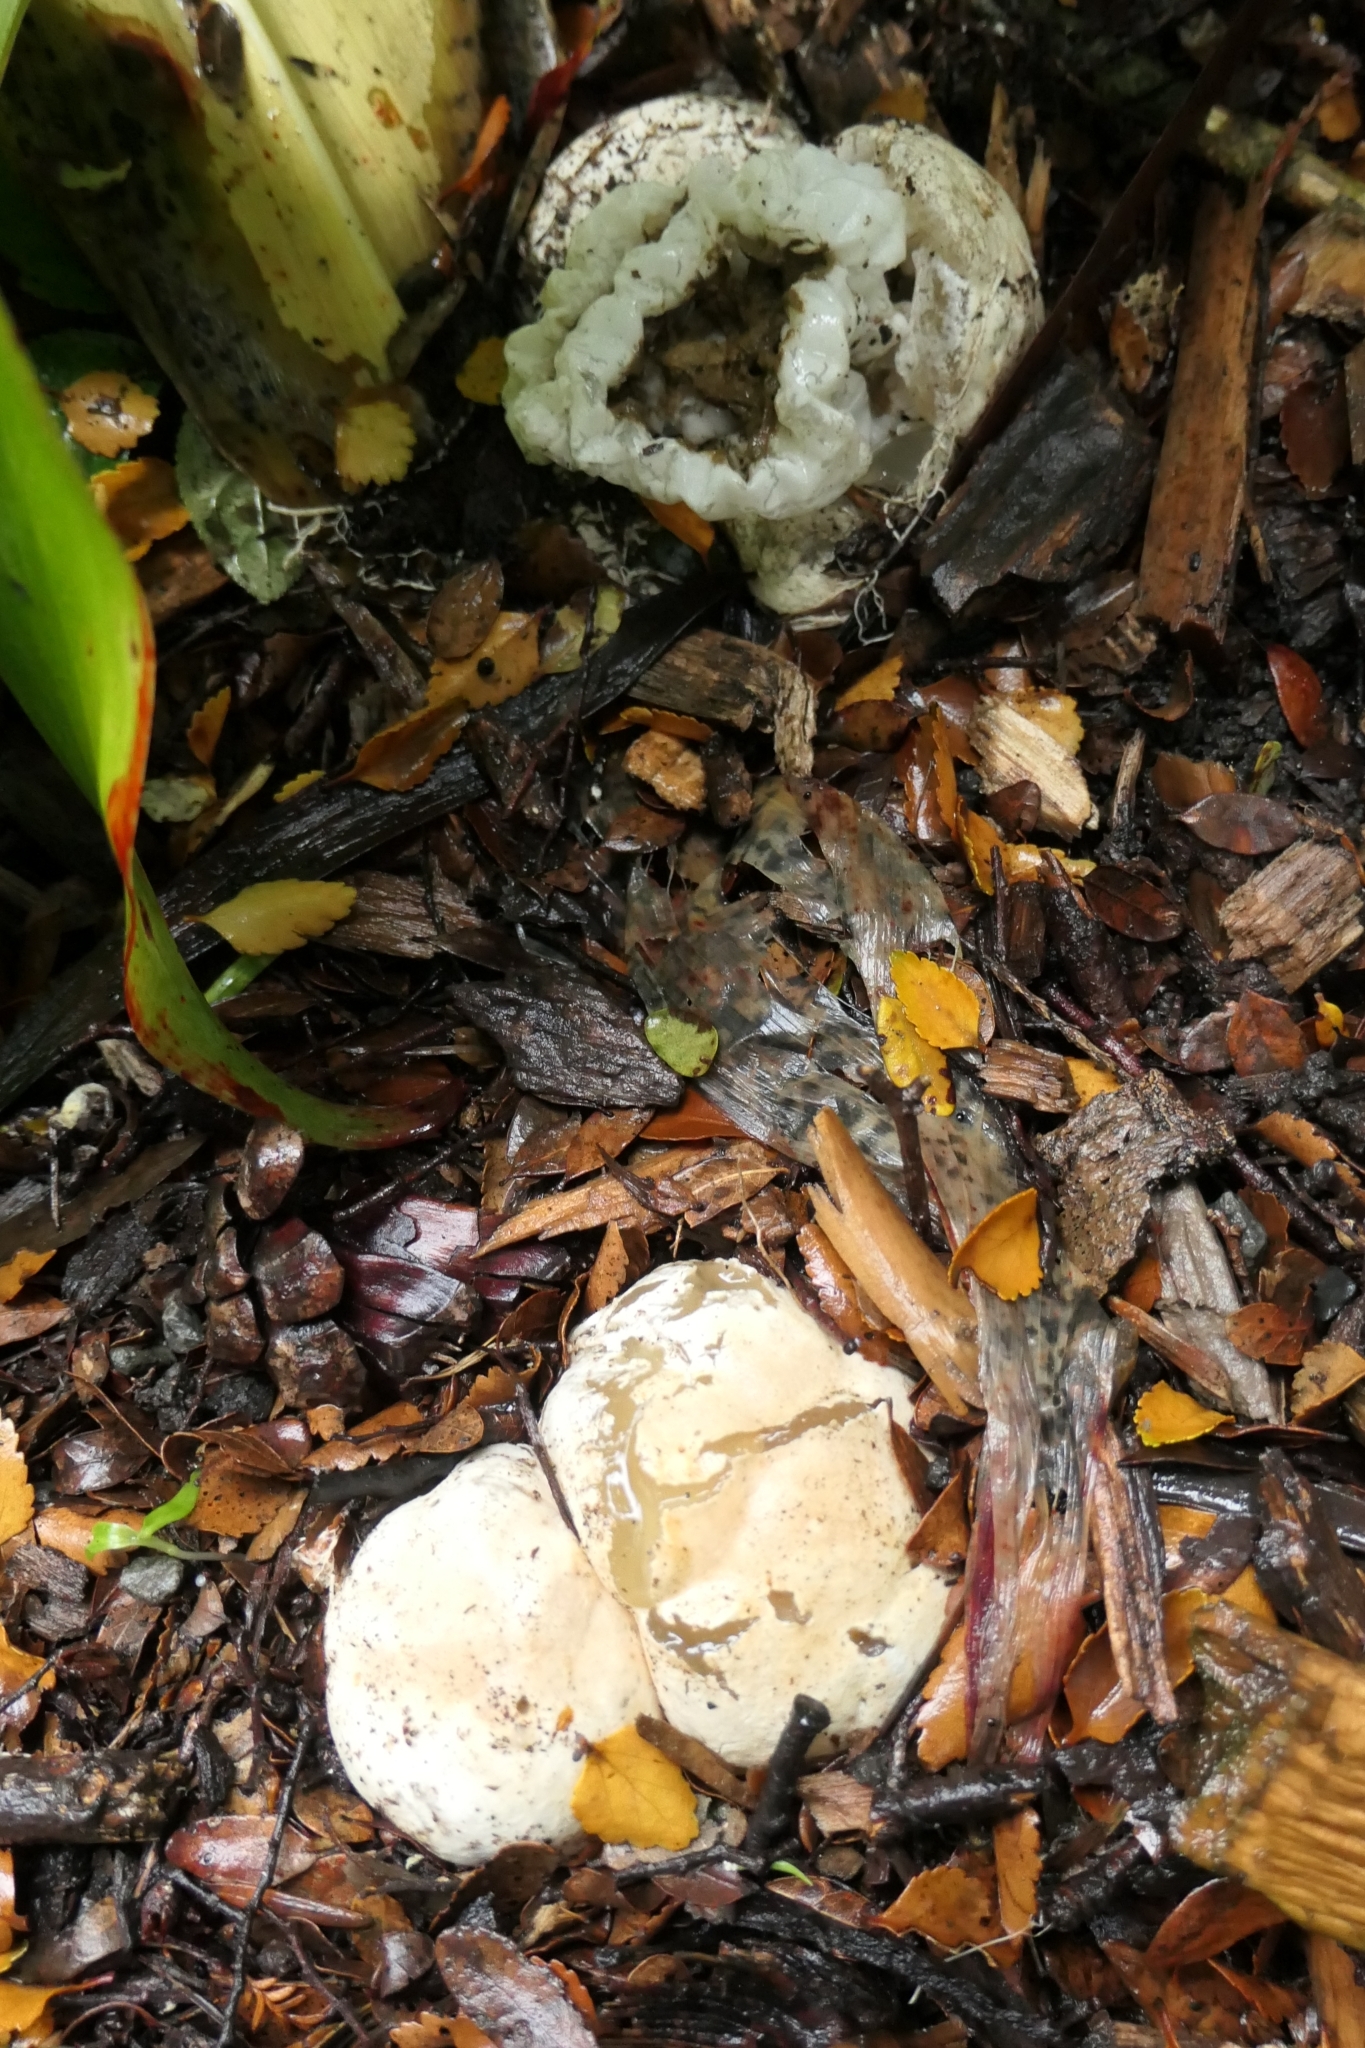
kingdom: Fungi
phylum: Basidiomycota
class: Agaricomycetes
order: Phallales
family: Phallaceae
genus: Ileodictyon
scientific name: Ileodictyon cibarium
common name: Basket fungus
